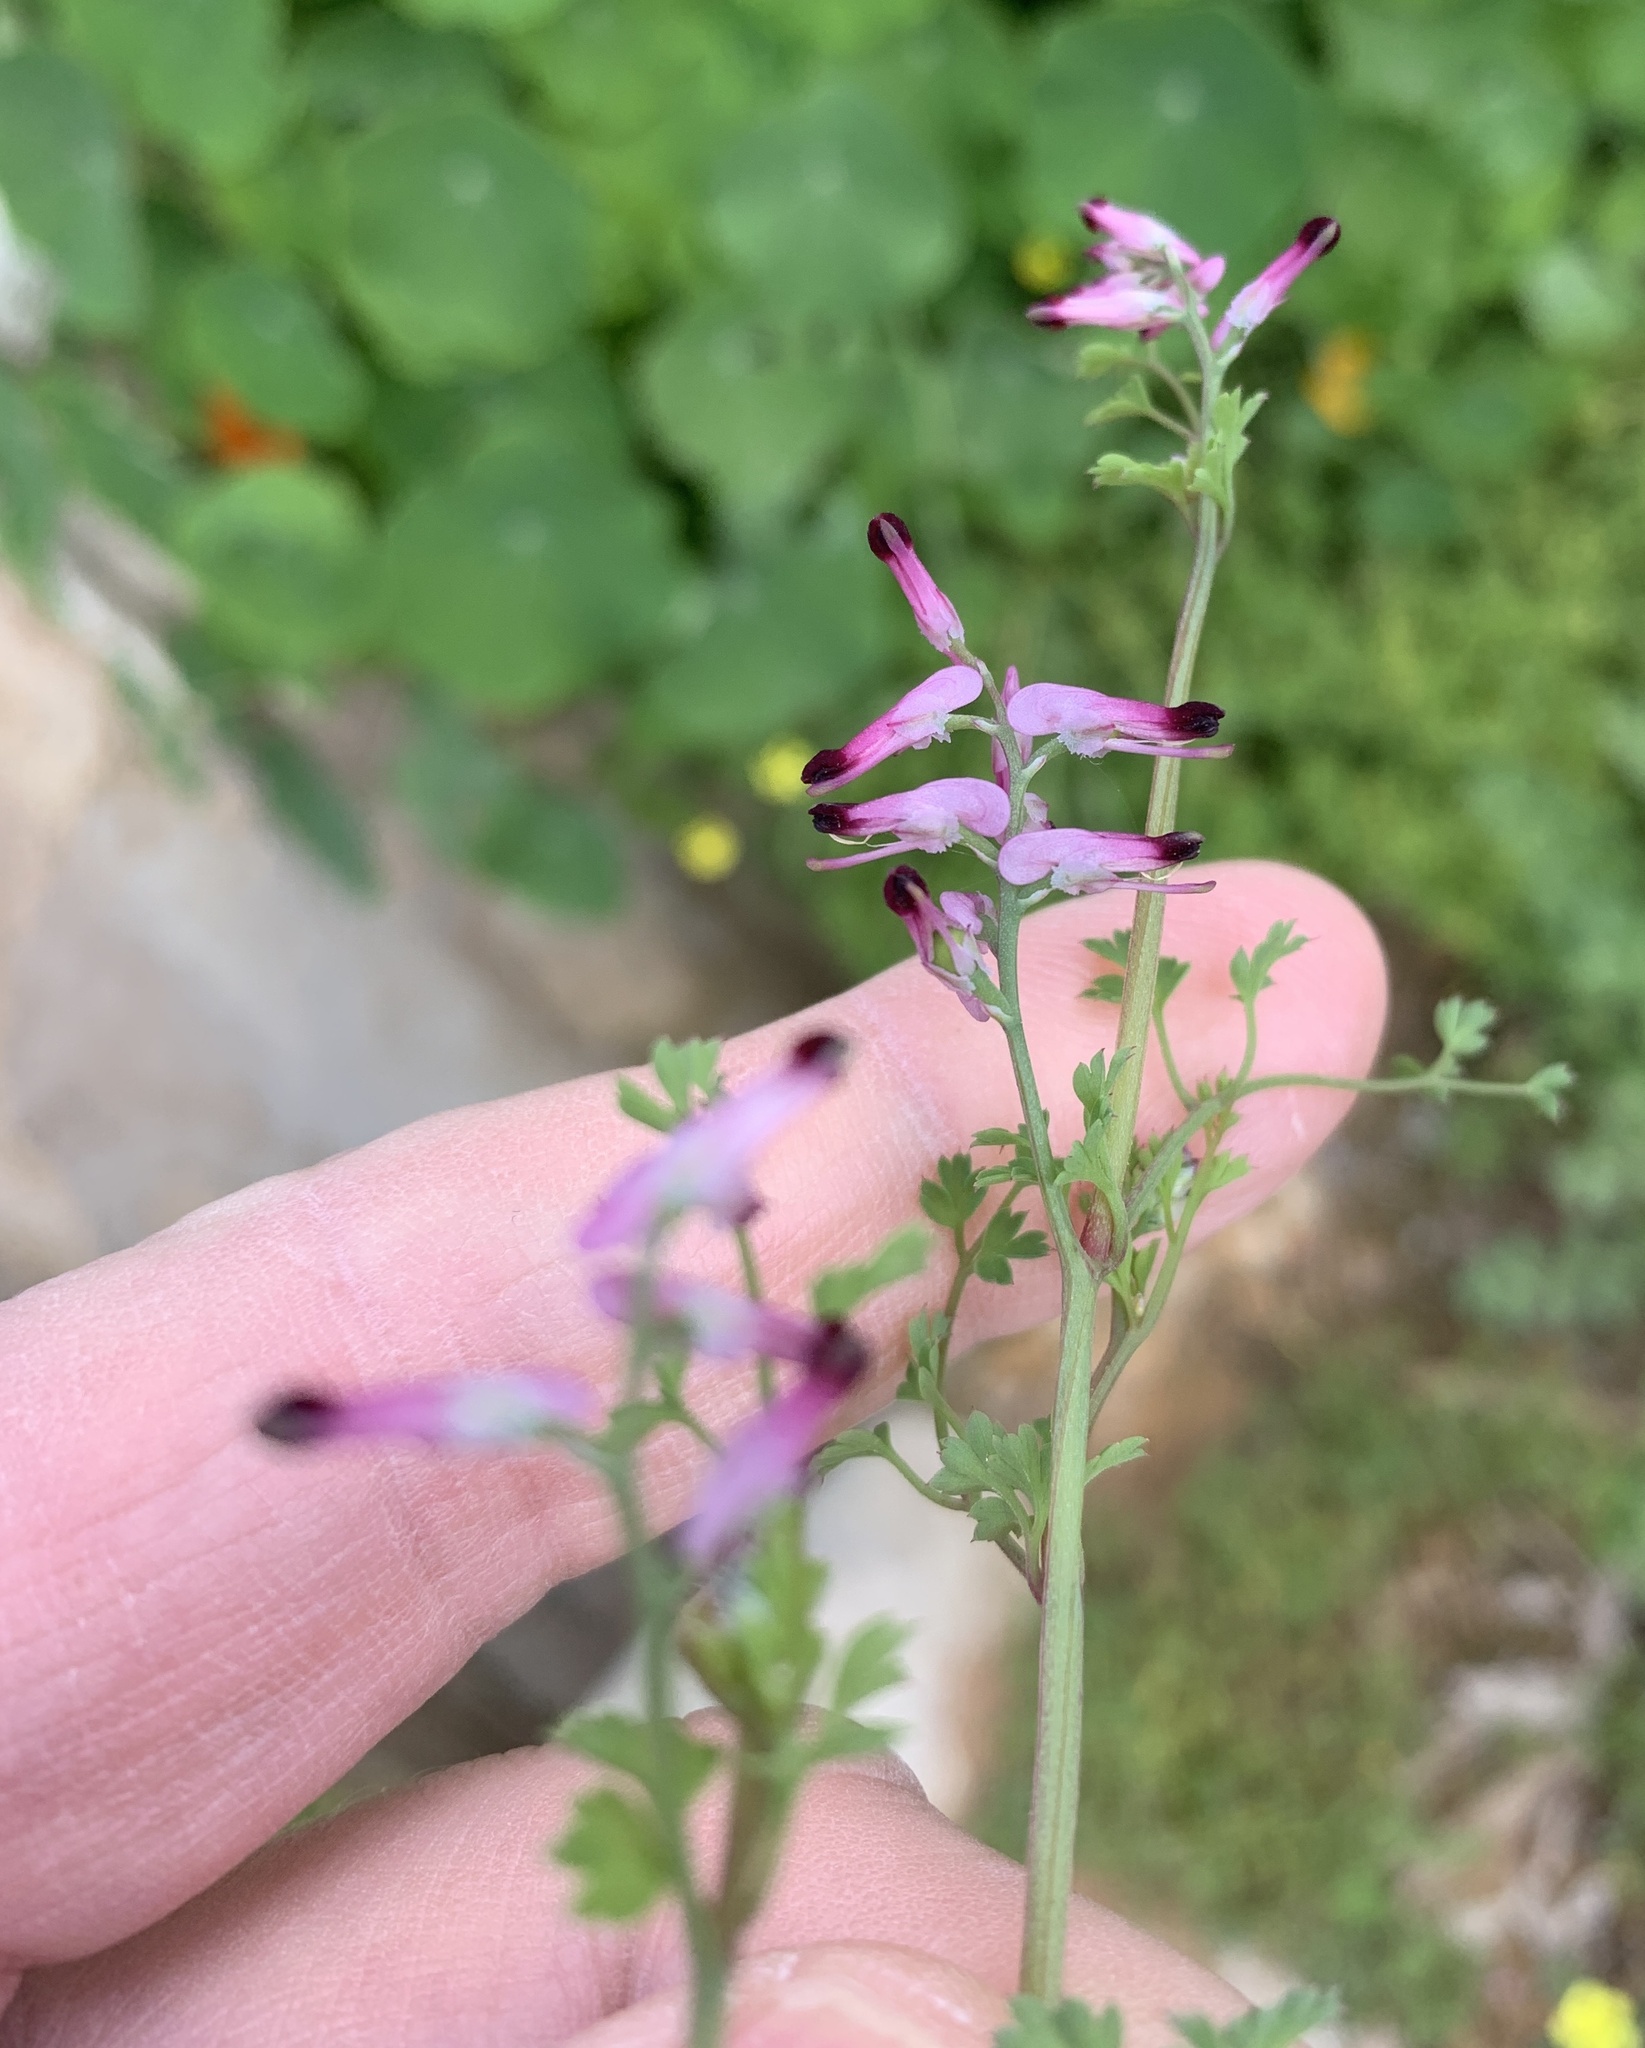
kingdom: Plantae
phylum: Tracheophyta
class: Magnoliopsida
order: Ranunculales
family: Papaveraceae
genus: Fumaria
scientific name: Fumaria muralis
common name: Common ramping-fumitory
